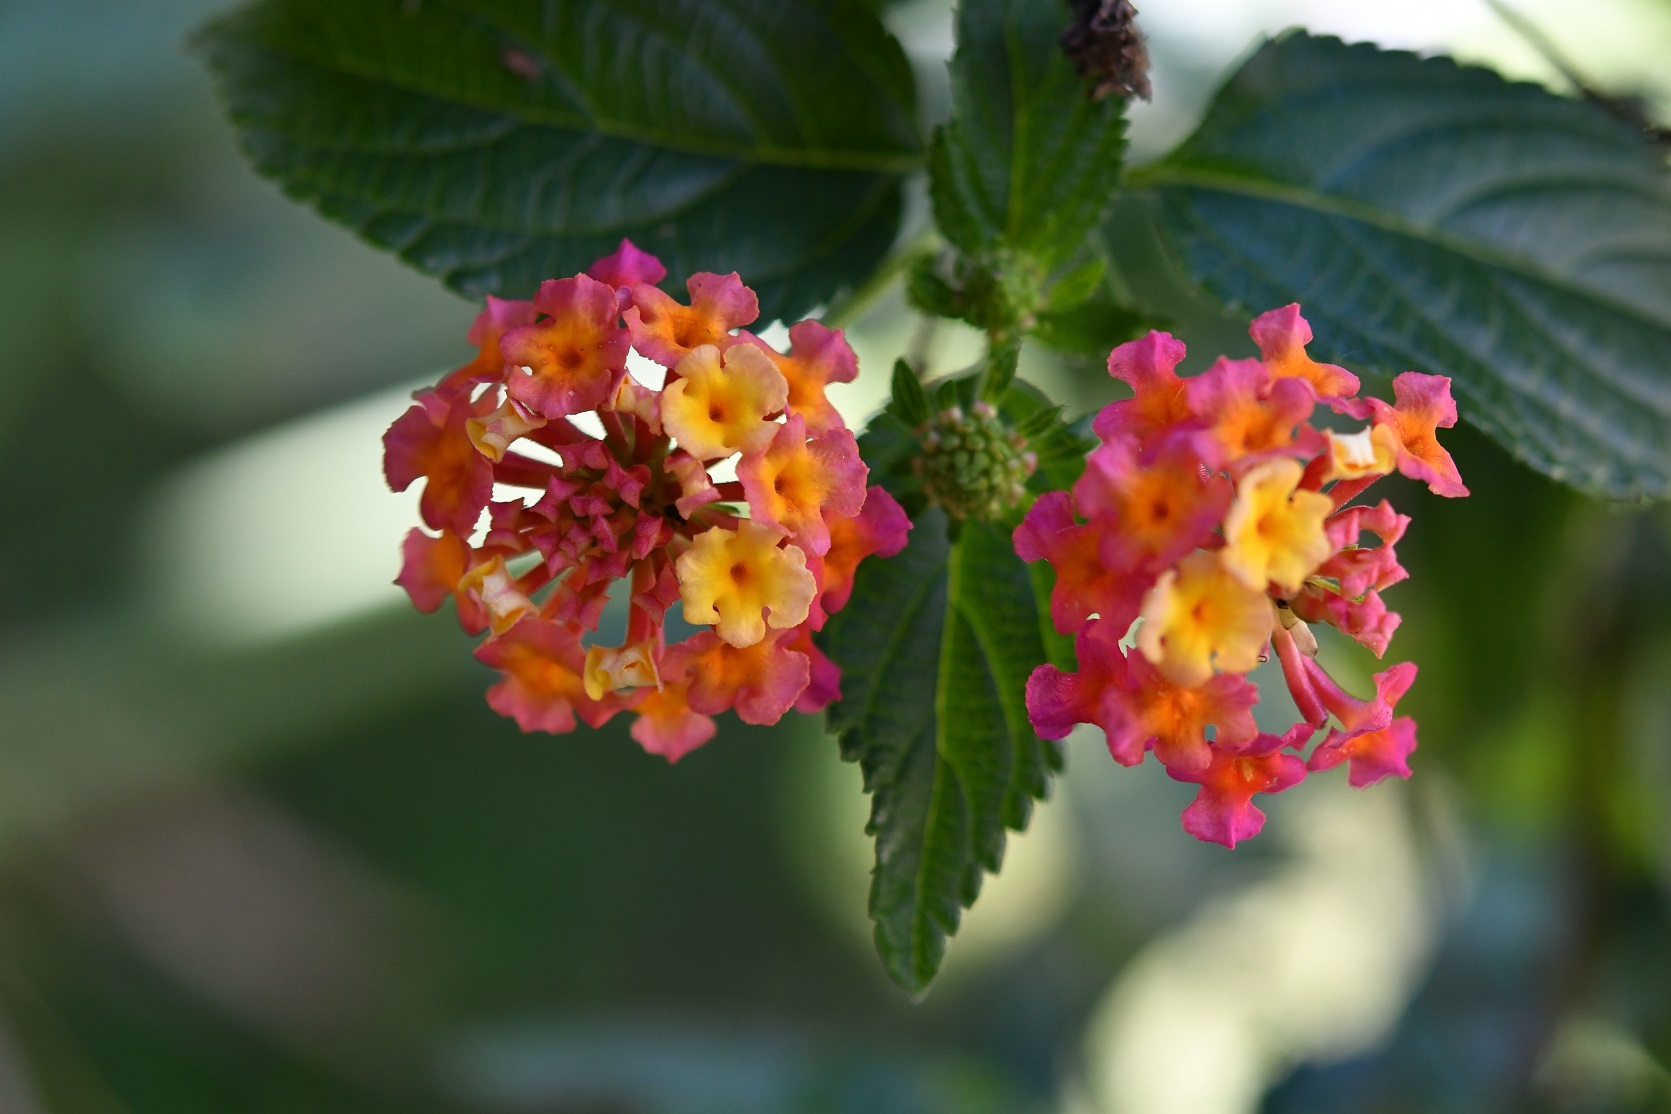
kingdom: Plantae
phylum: Tracheophyta
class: Magnoliopsida
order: Lamiales
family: Verbenaceae
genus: Lantana
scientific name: Lantana camara
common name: Lantana
